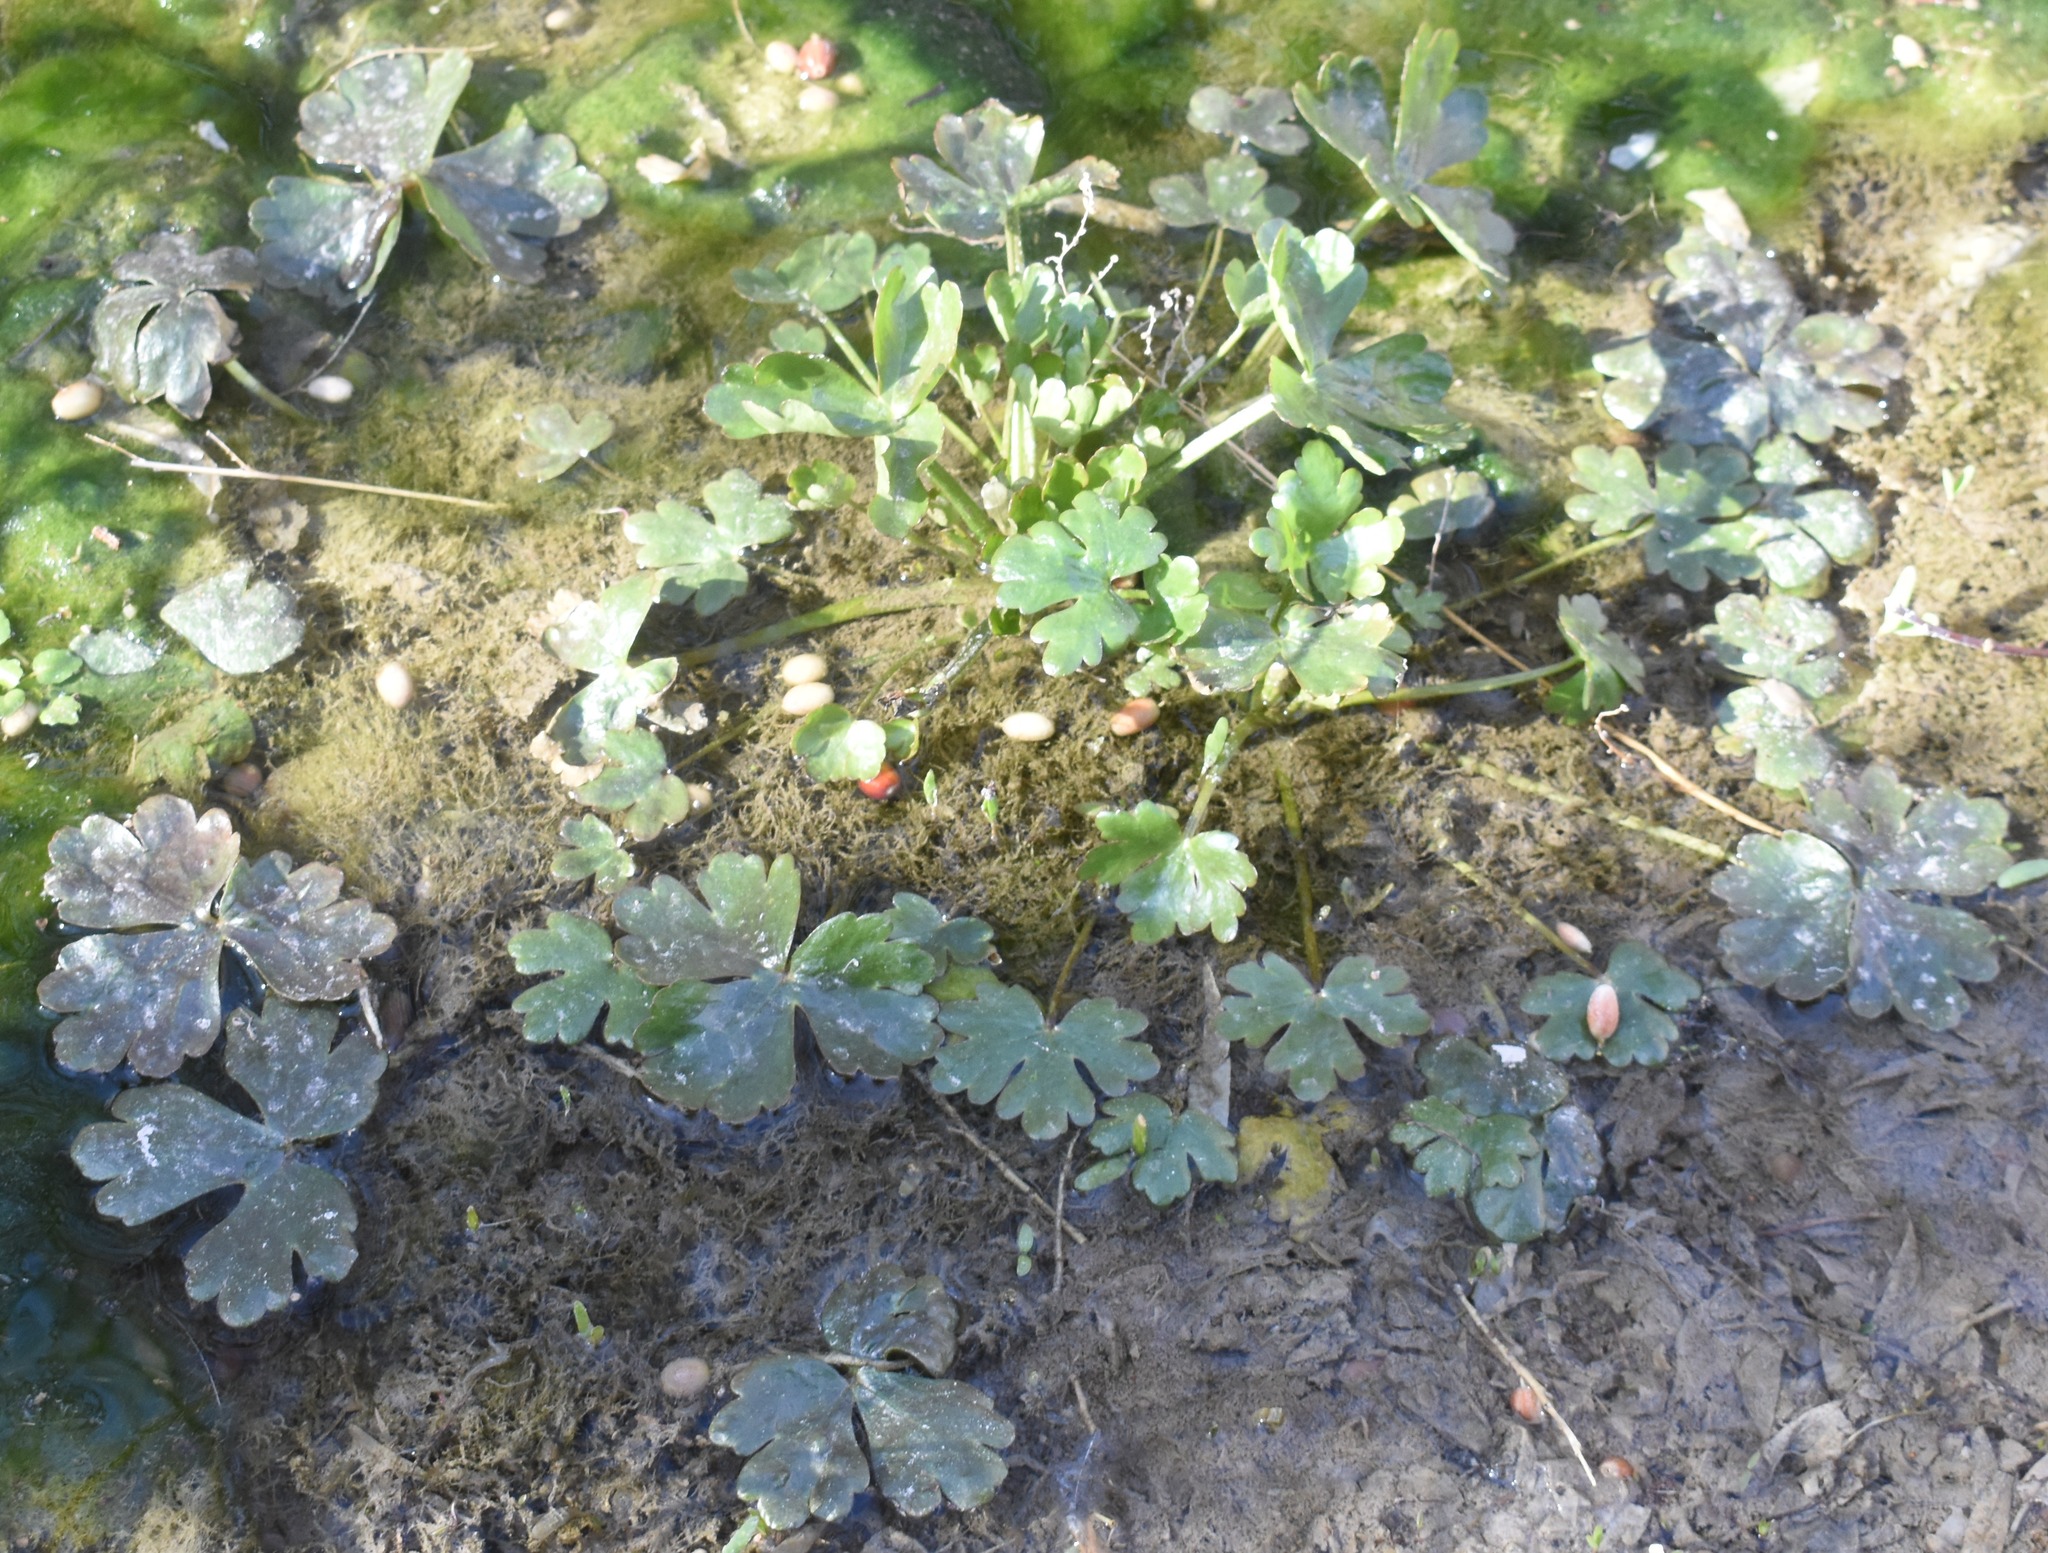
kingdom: Plantae
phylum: Tracheophyta
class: Magnoliopsida
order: Ranunculales
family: Ranunculaceae
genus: Ranunculus
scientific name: Ranunculus sceleratus
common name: Celery-leaved buttercup
